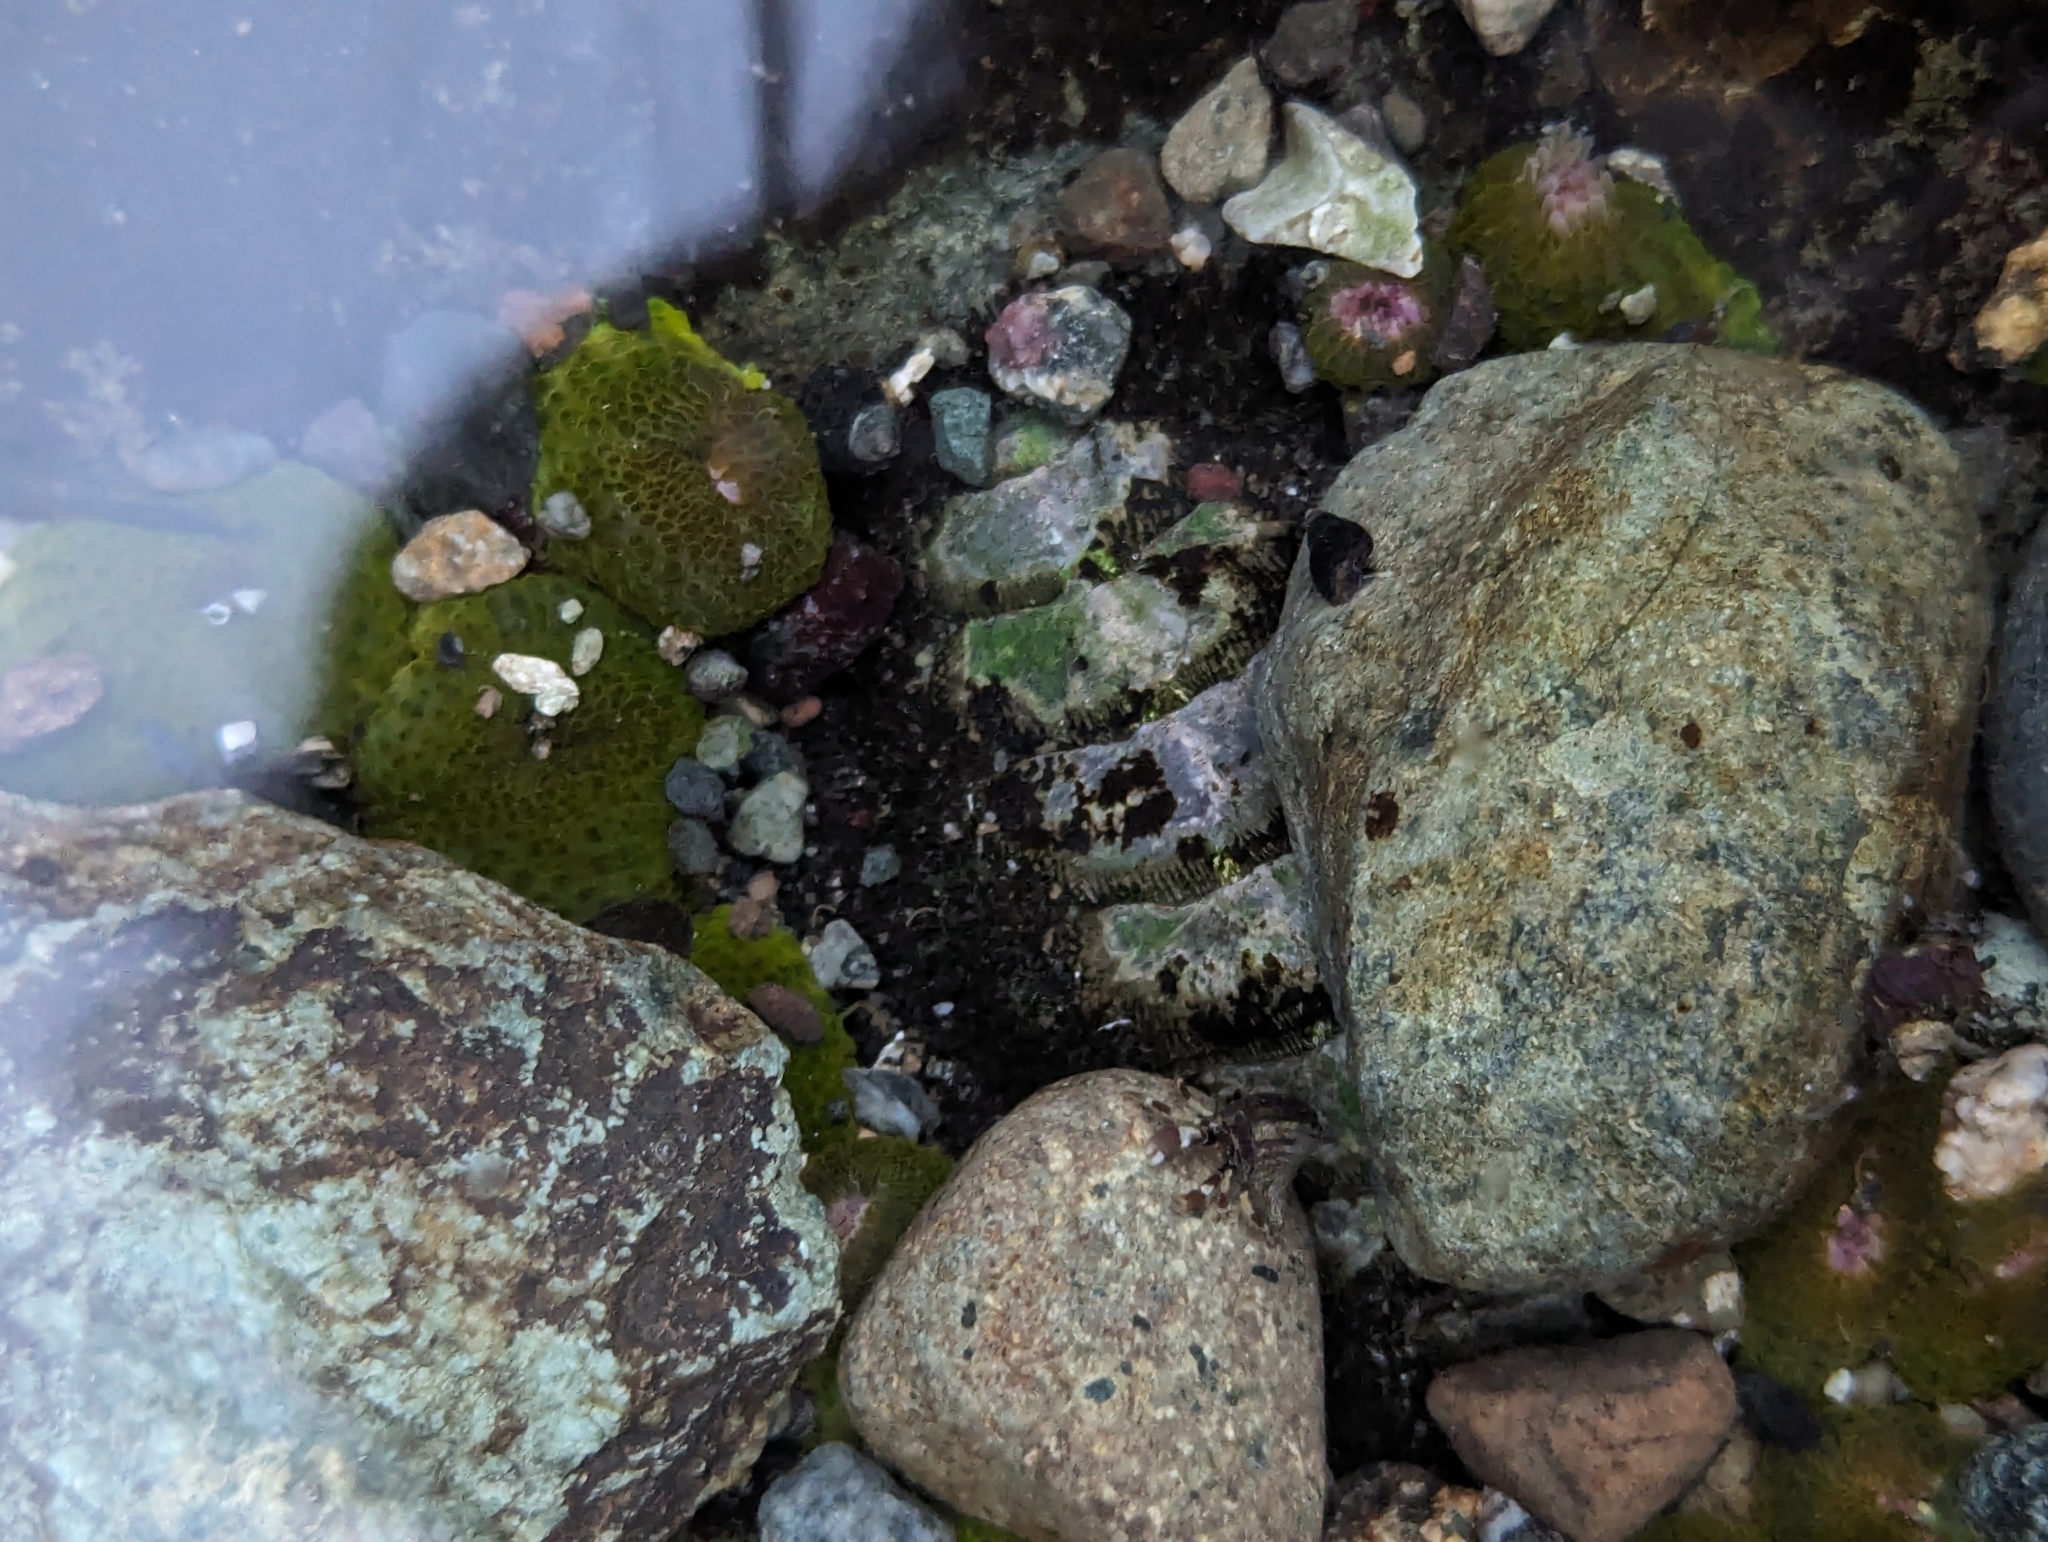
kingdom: Animalia
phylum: Mollusca
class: Polyplacophora
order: Chitonida
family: Mopaliidae
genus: Mopalia
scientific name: Mopalia muscosa
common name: Mossy chiton
